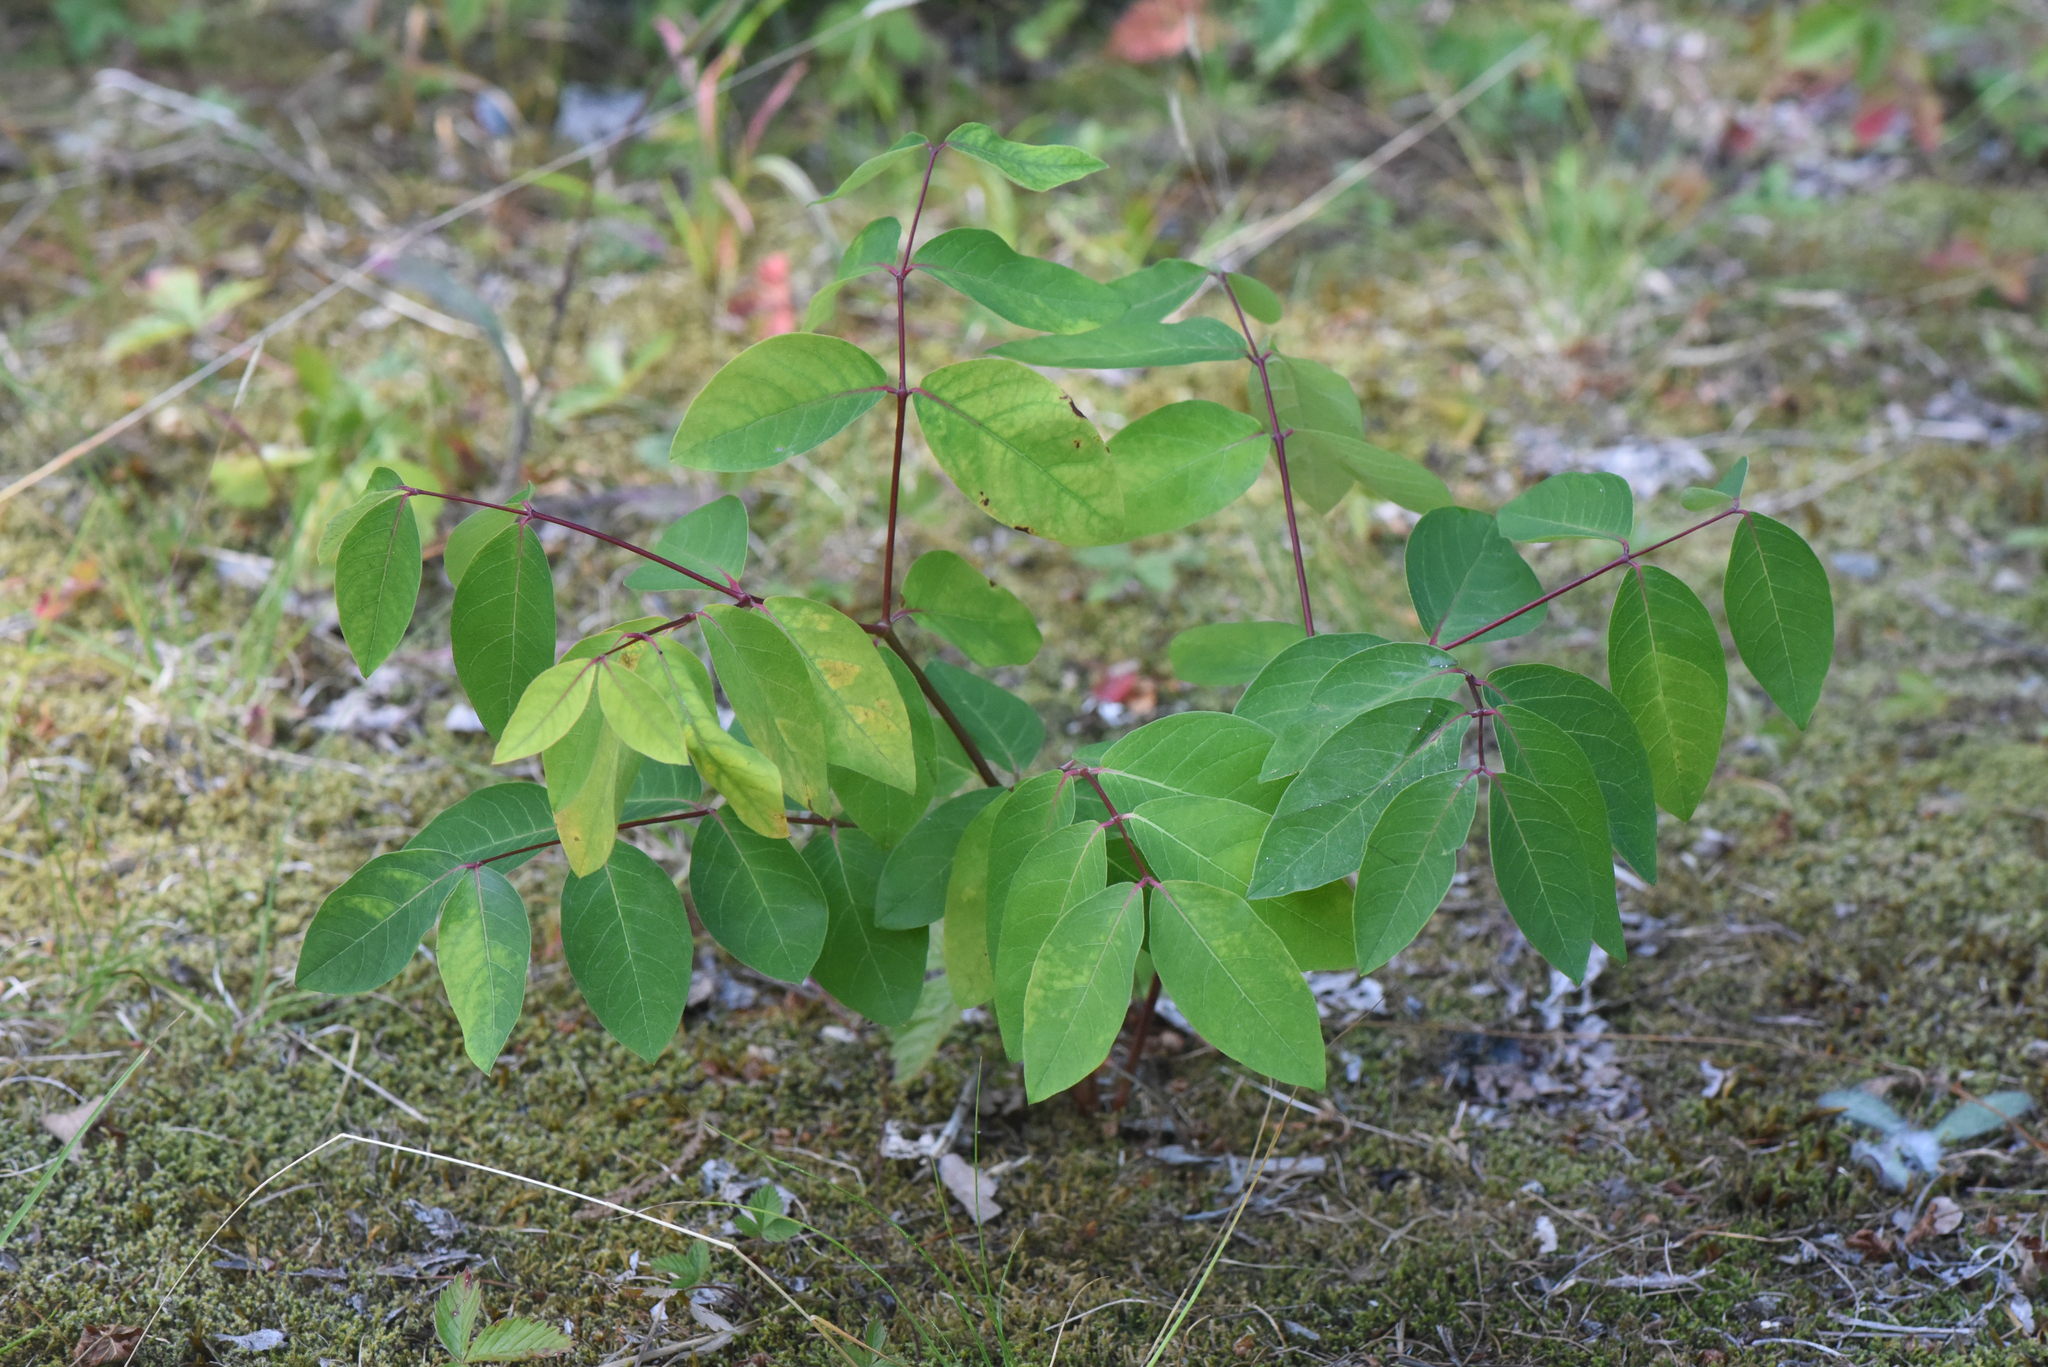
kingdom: Plantae
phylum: Tracheophyta
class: Magnoliopsida
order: Gentianales
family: Apocynaceae
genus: Apocynum
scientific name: Apocynum androsaemifolium
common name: Spreading dogbane
